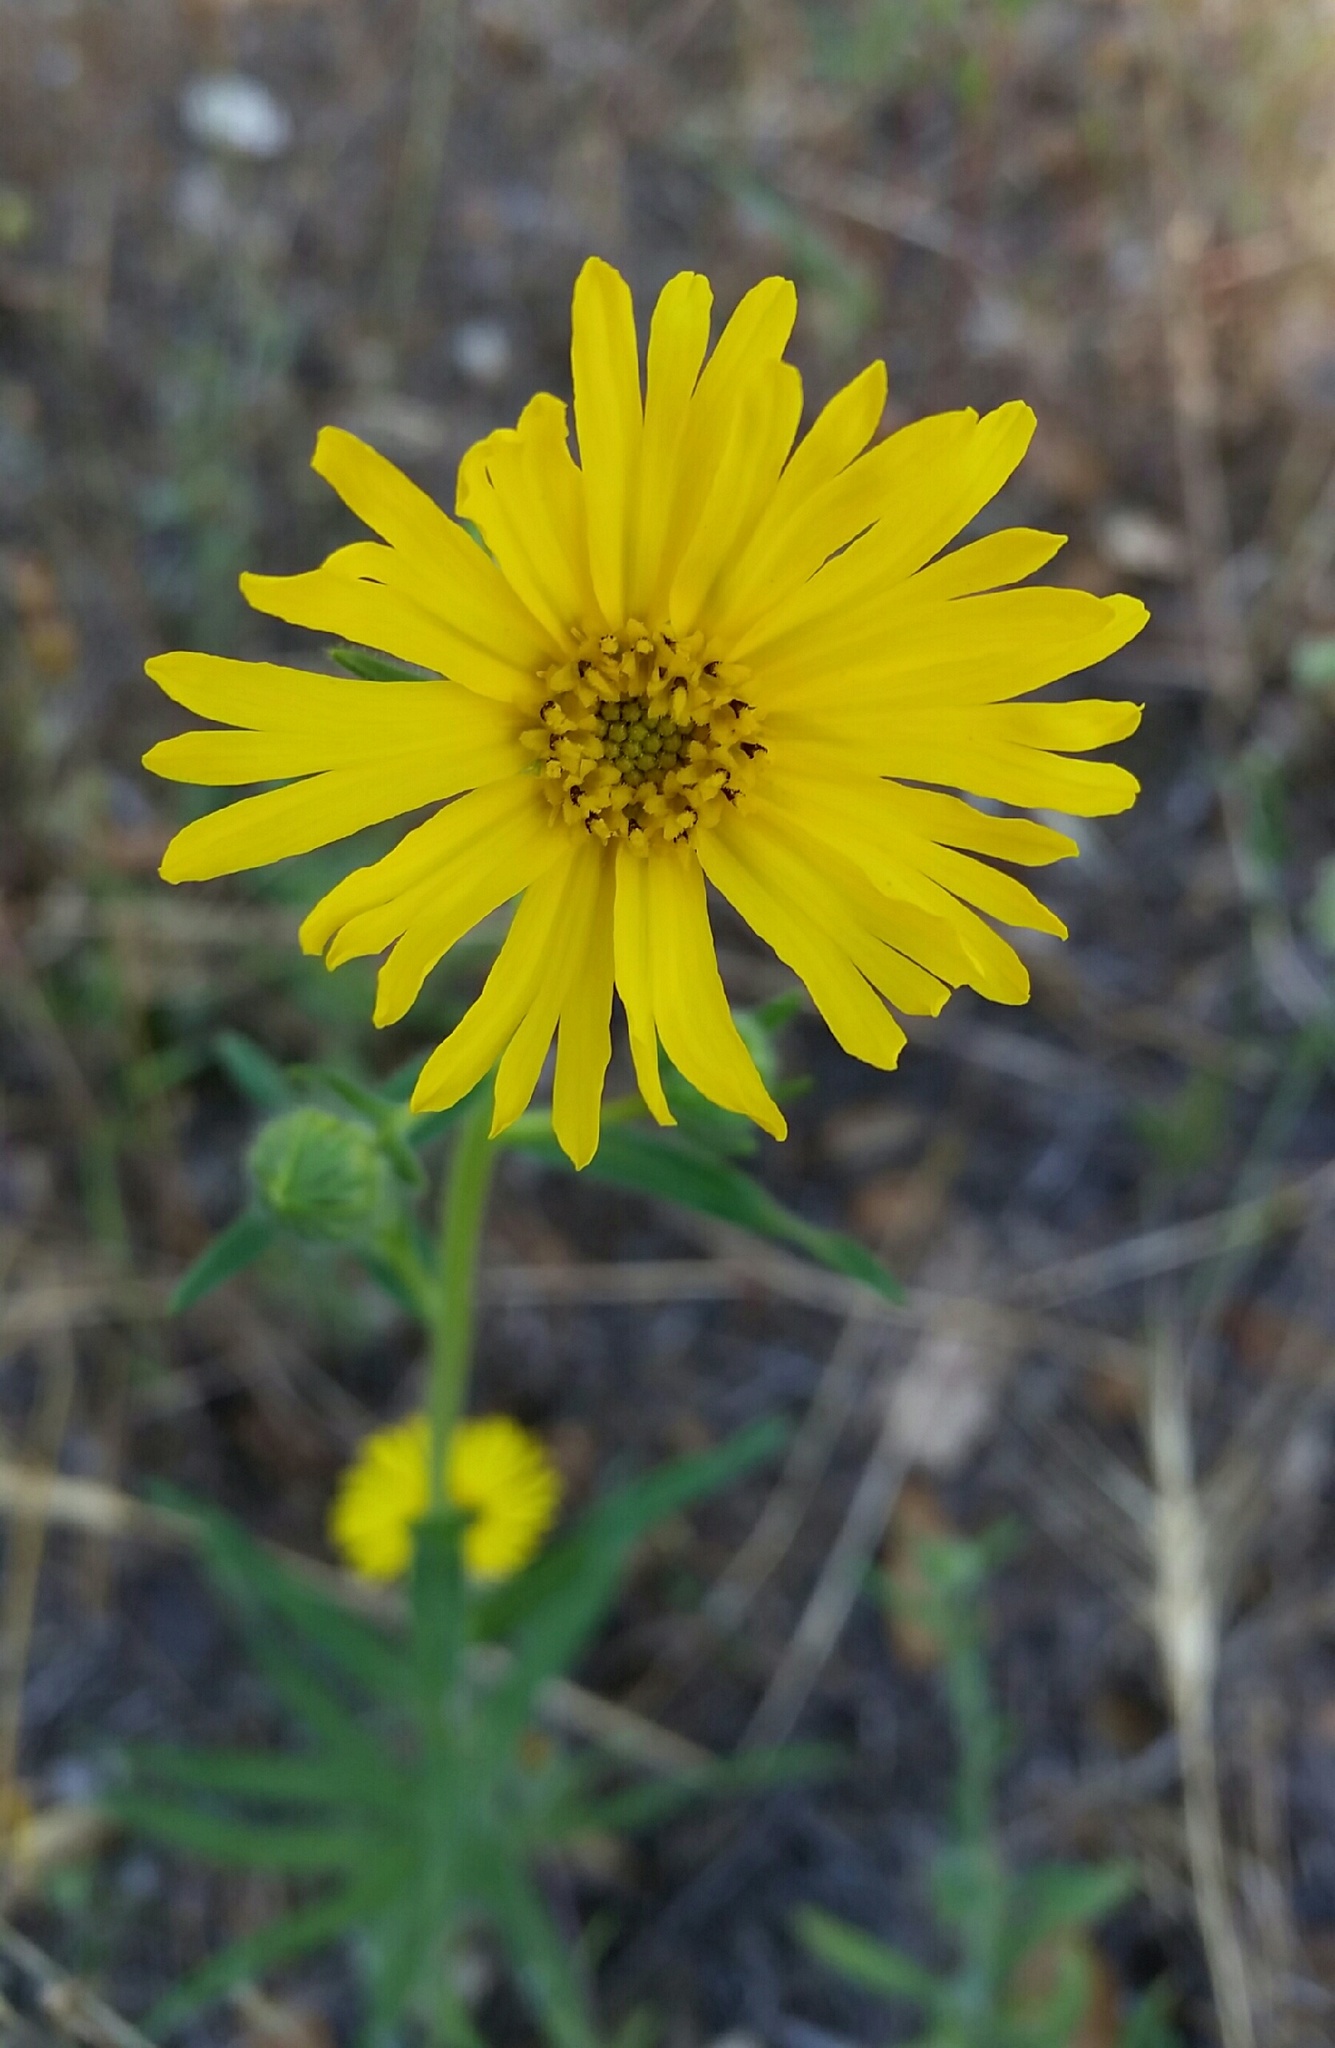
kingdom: Plantae
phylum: Tracheophyta
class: Magnoliopsida
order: Asterales
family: Asteraceae
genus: Madia
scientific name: Madia elegans
